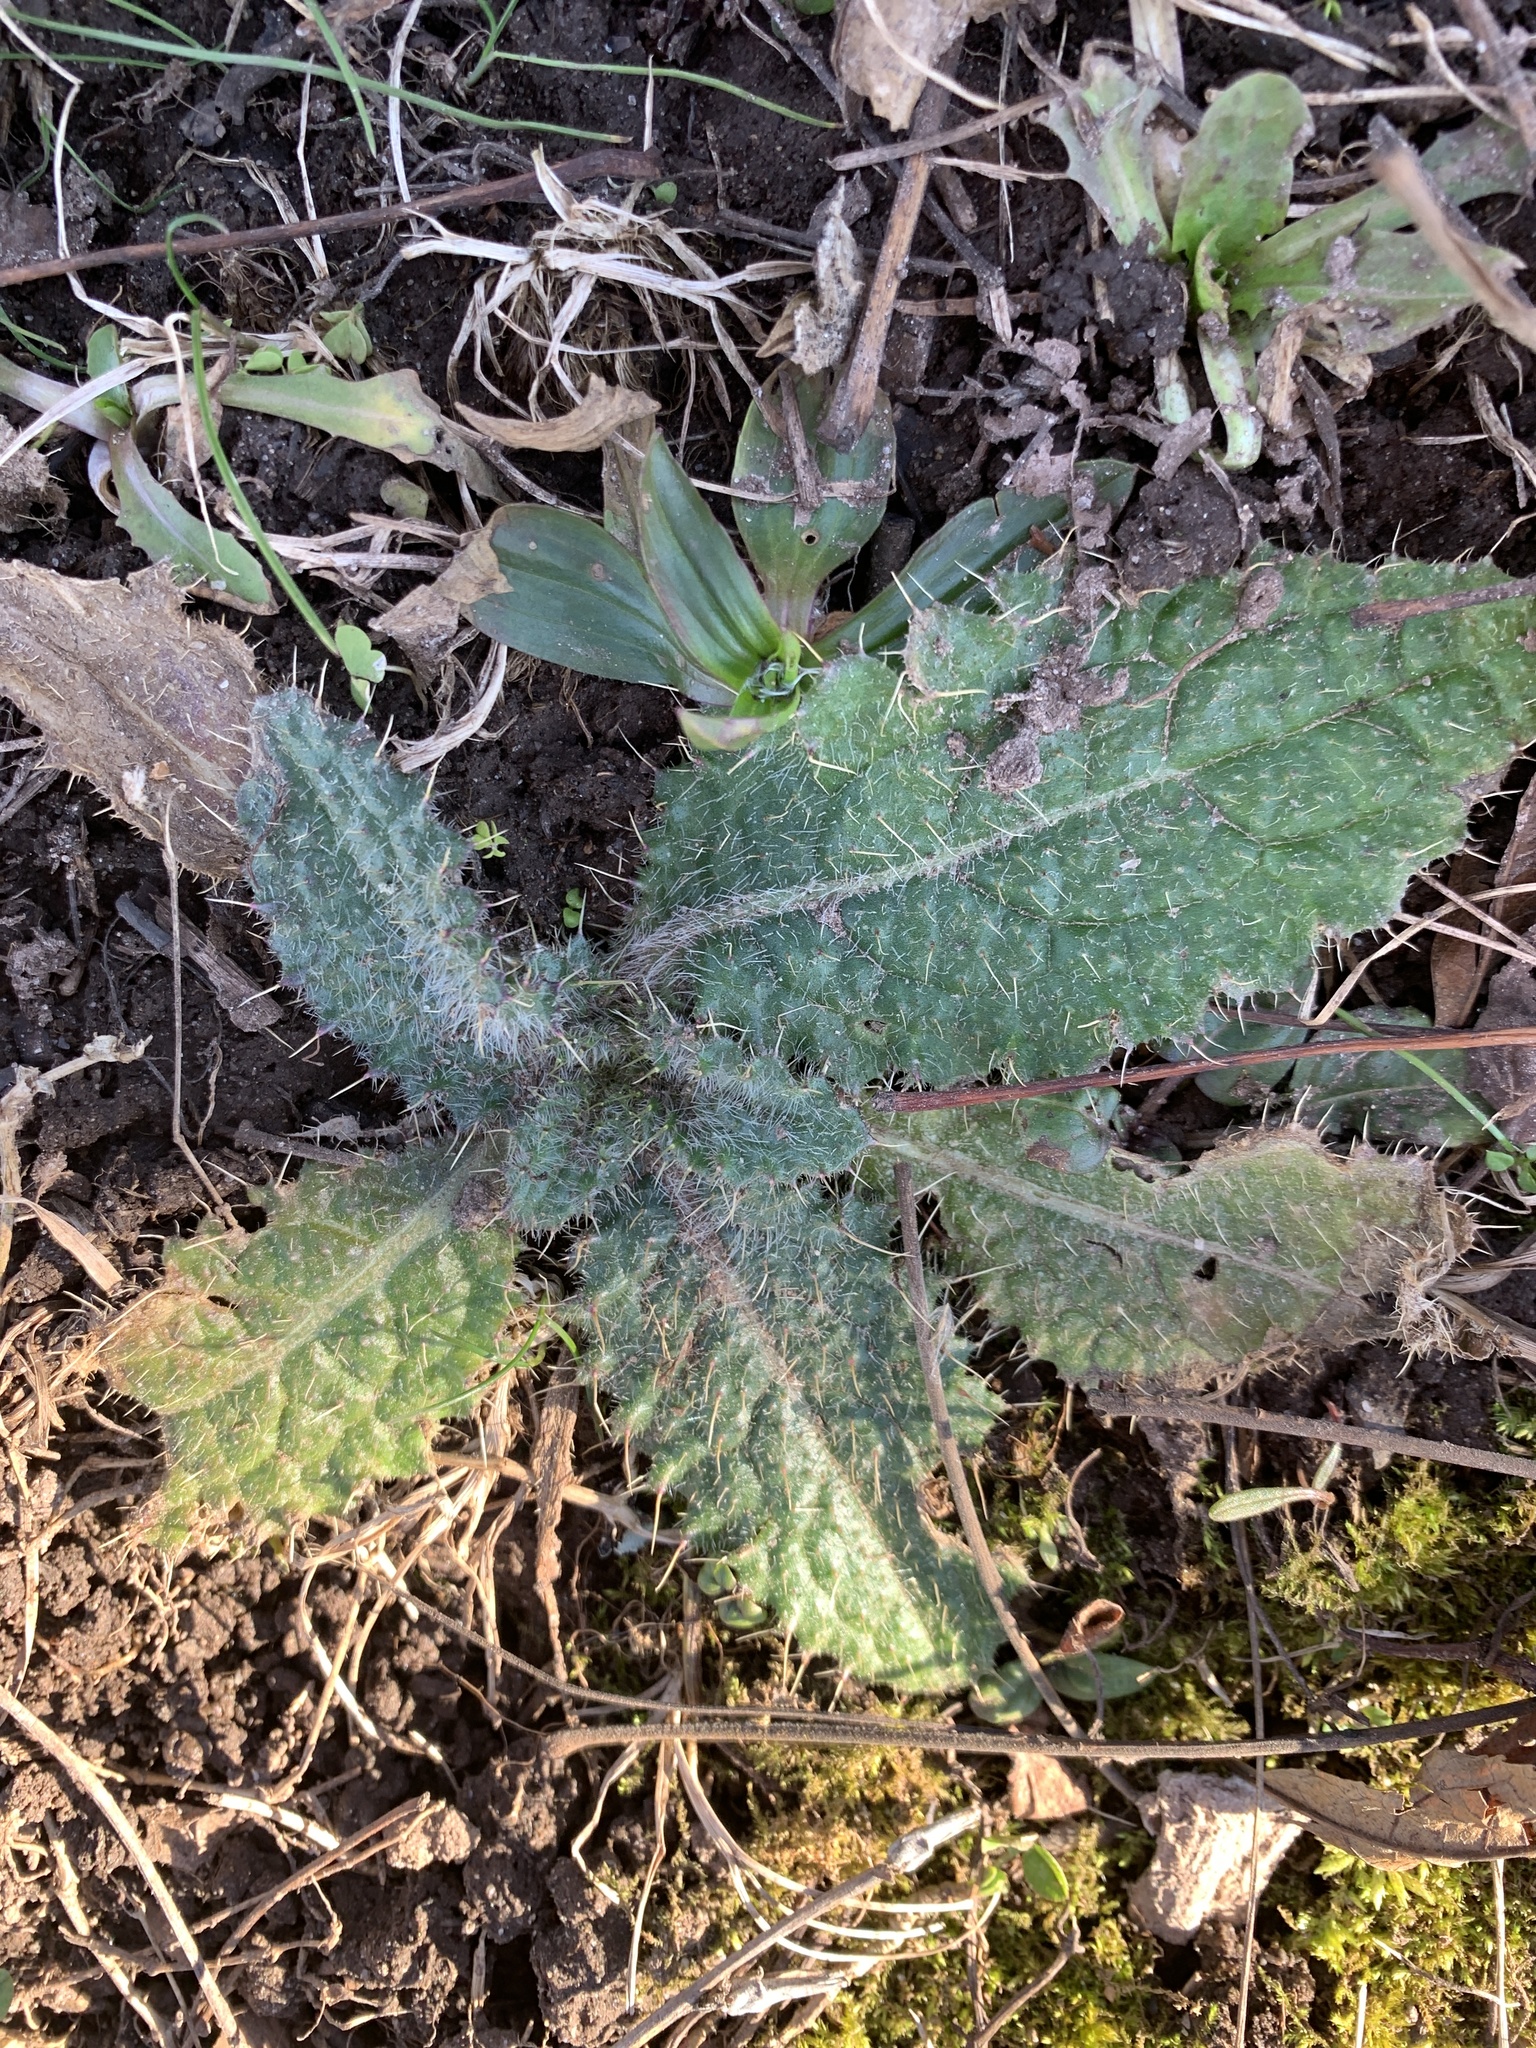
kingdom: Plantae
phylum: Tracheophyta
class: Magnoliopsida
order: Asterales
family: Asteraceae
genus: Cirsium
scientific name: Cirsium vulgare
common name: Bull thistle
